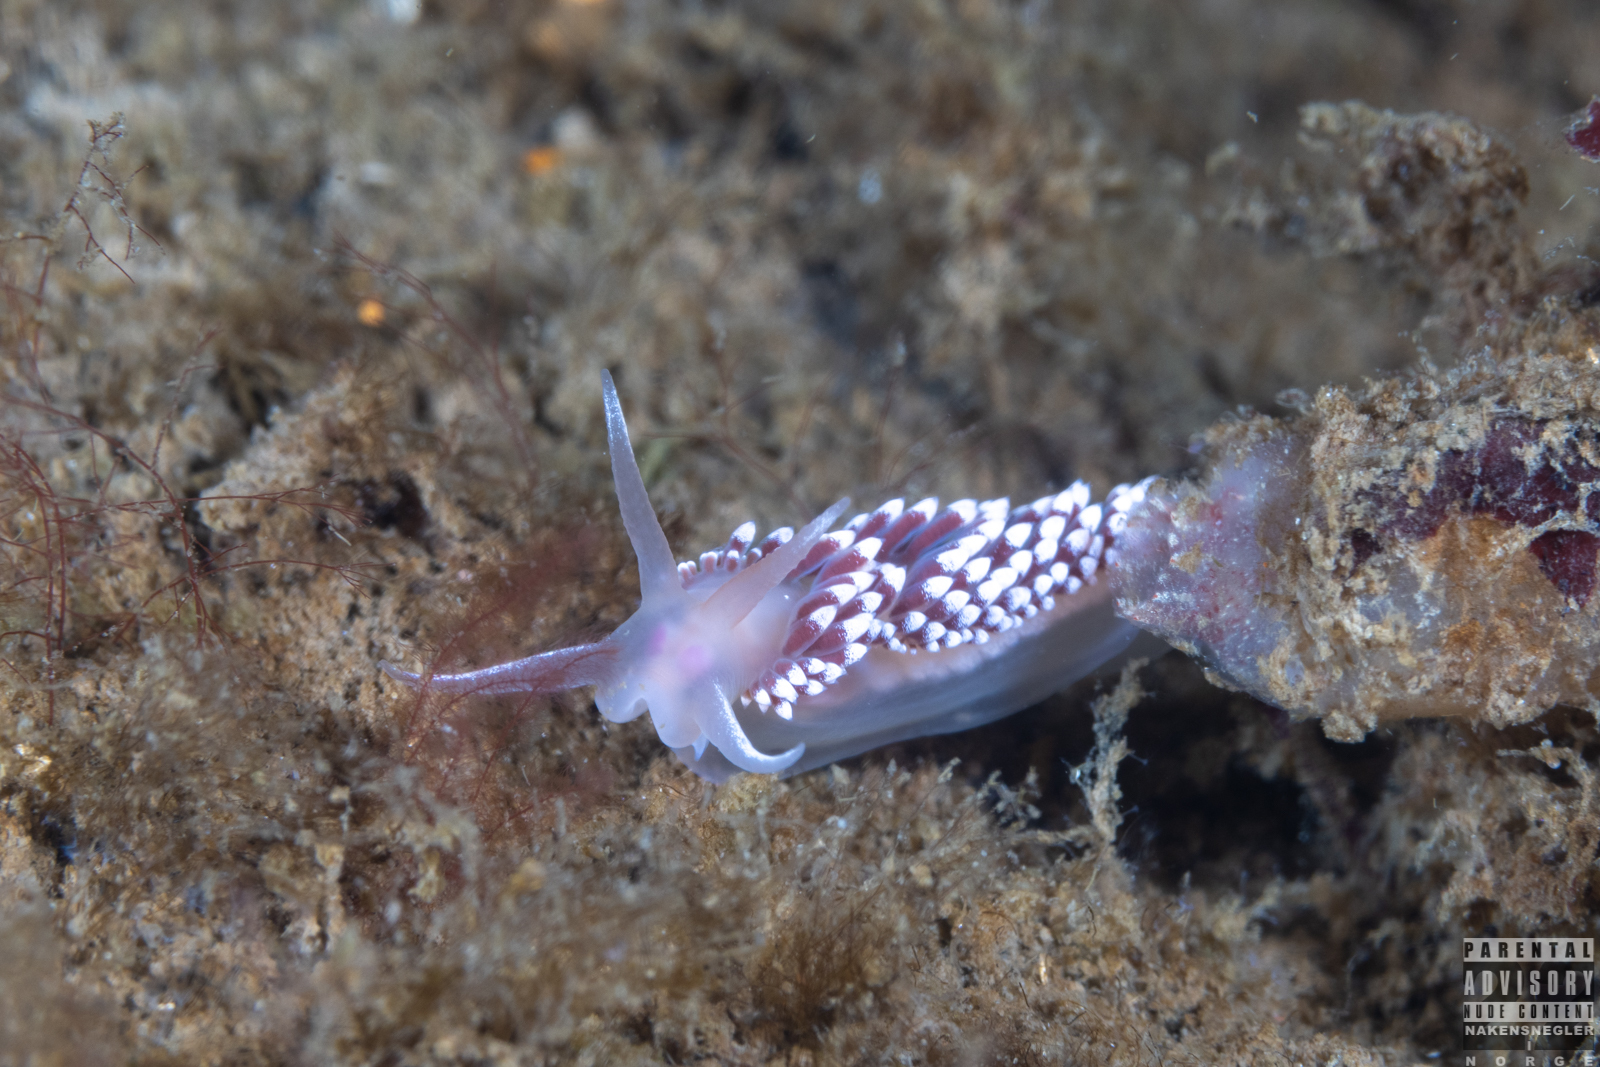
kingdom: Animalia
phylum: Mollusca
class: Gastropoda
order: Nudibranchia
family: Coryphellidae
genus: Coryphella
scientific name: Coryphella verrucosa
